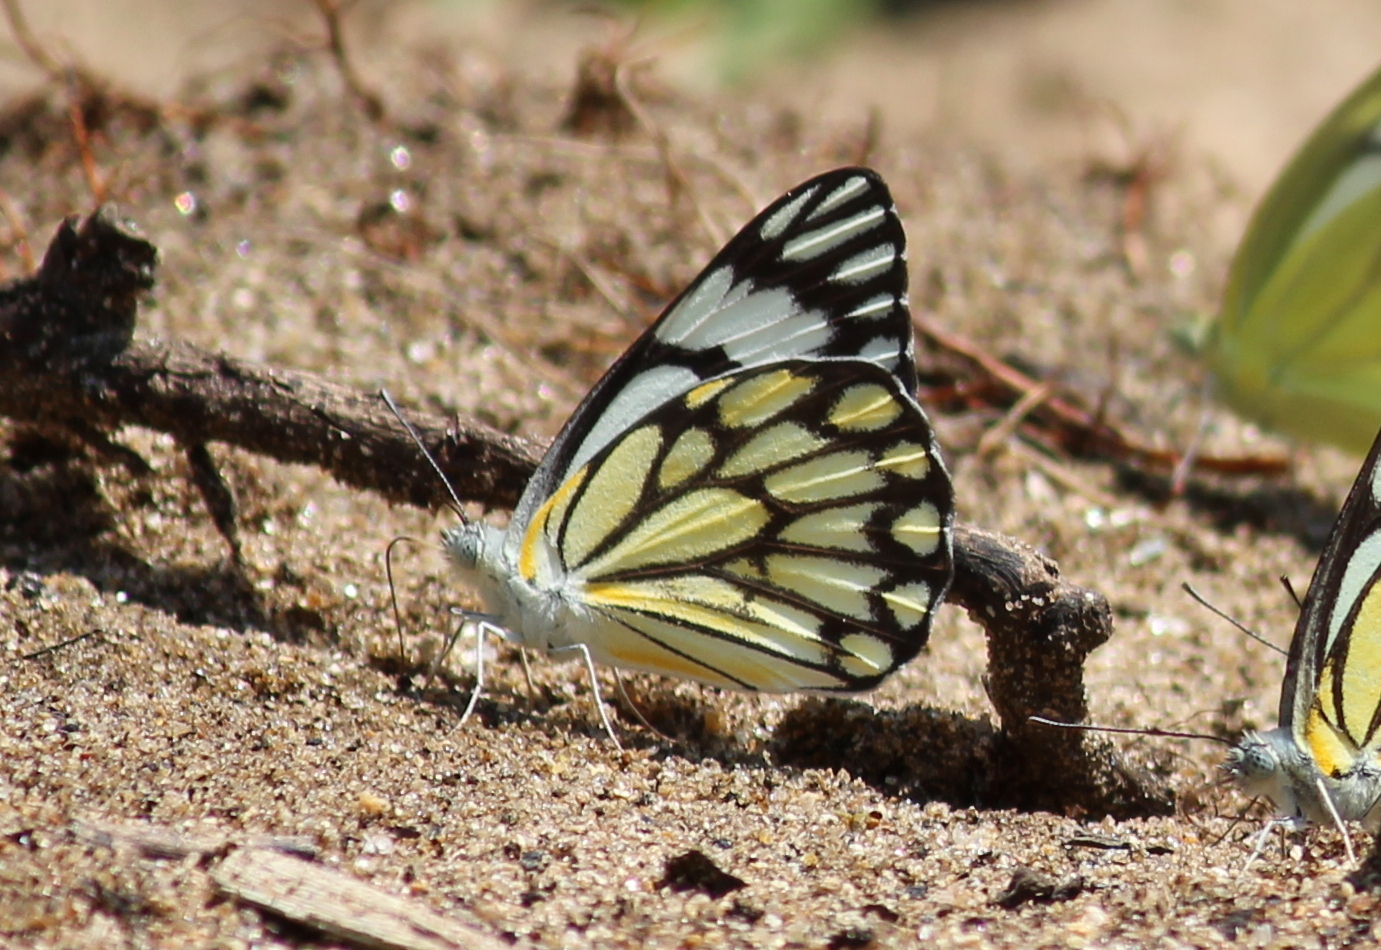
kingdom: Animalia
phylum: Arthropoda
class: Insecta
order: Lepidoptera
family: Pieridae
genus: Belenois
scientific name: Belenois aurota
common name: Brown-veined white
